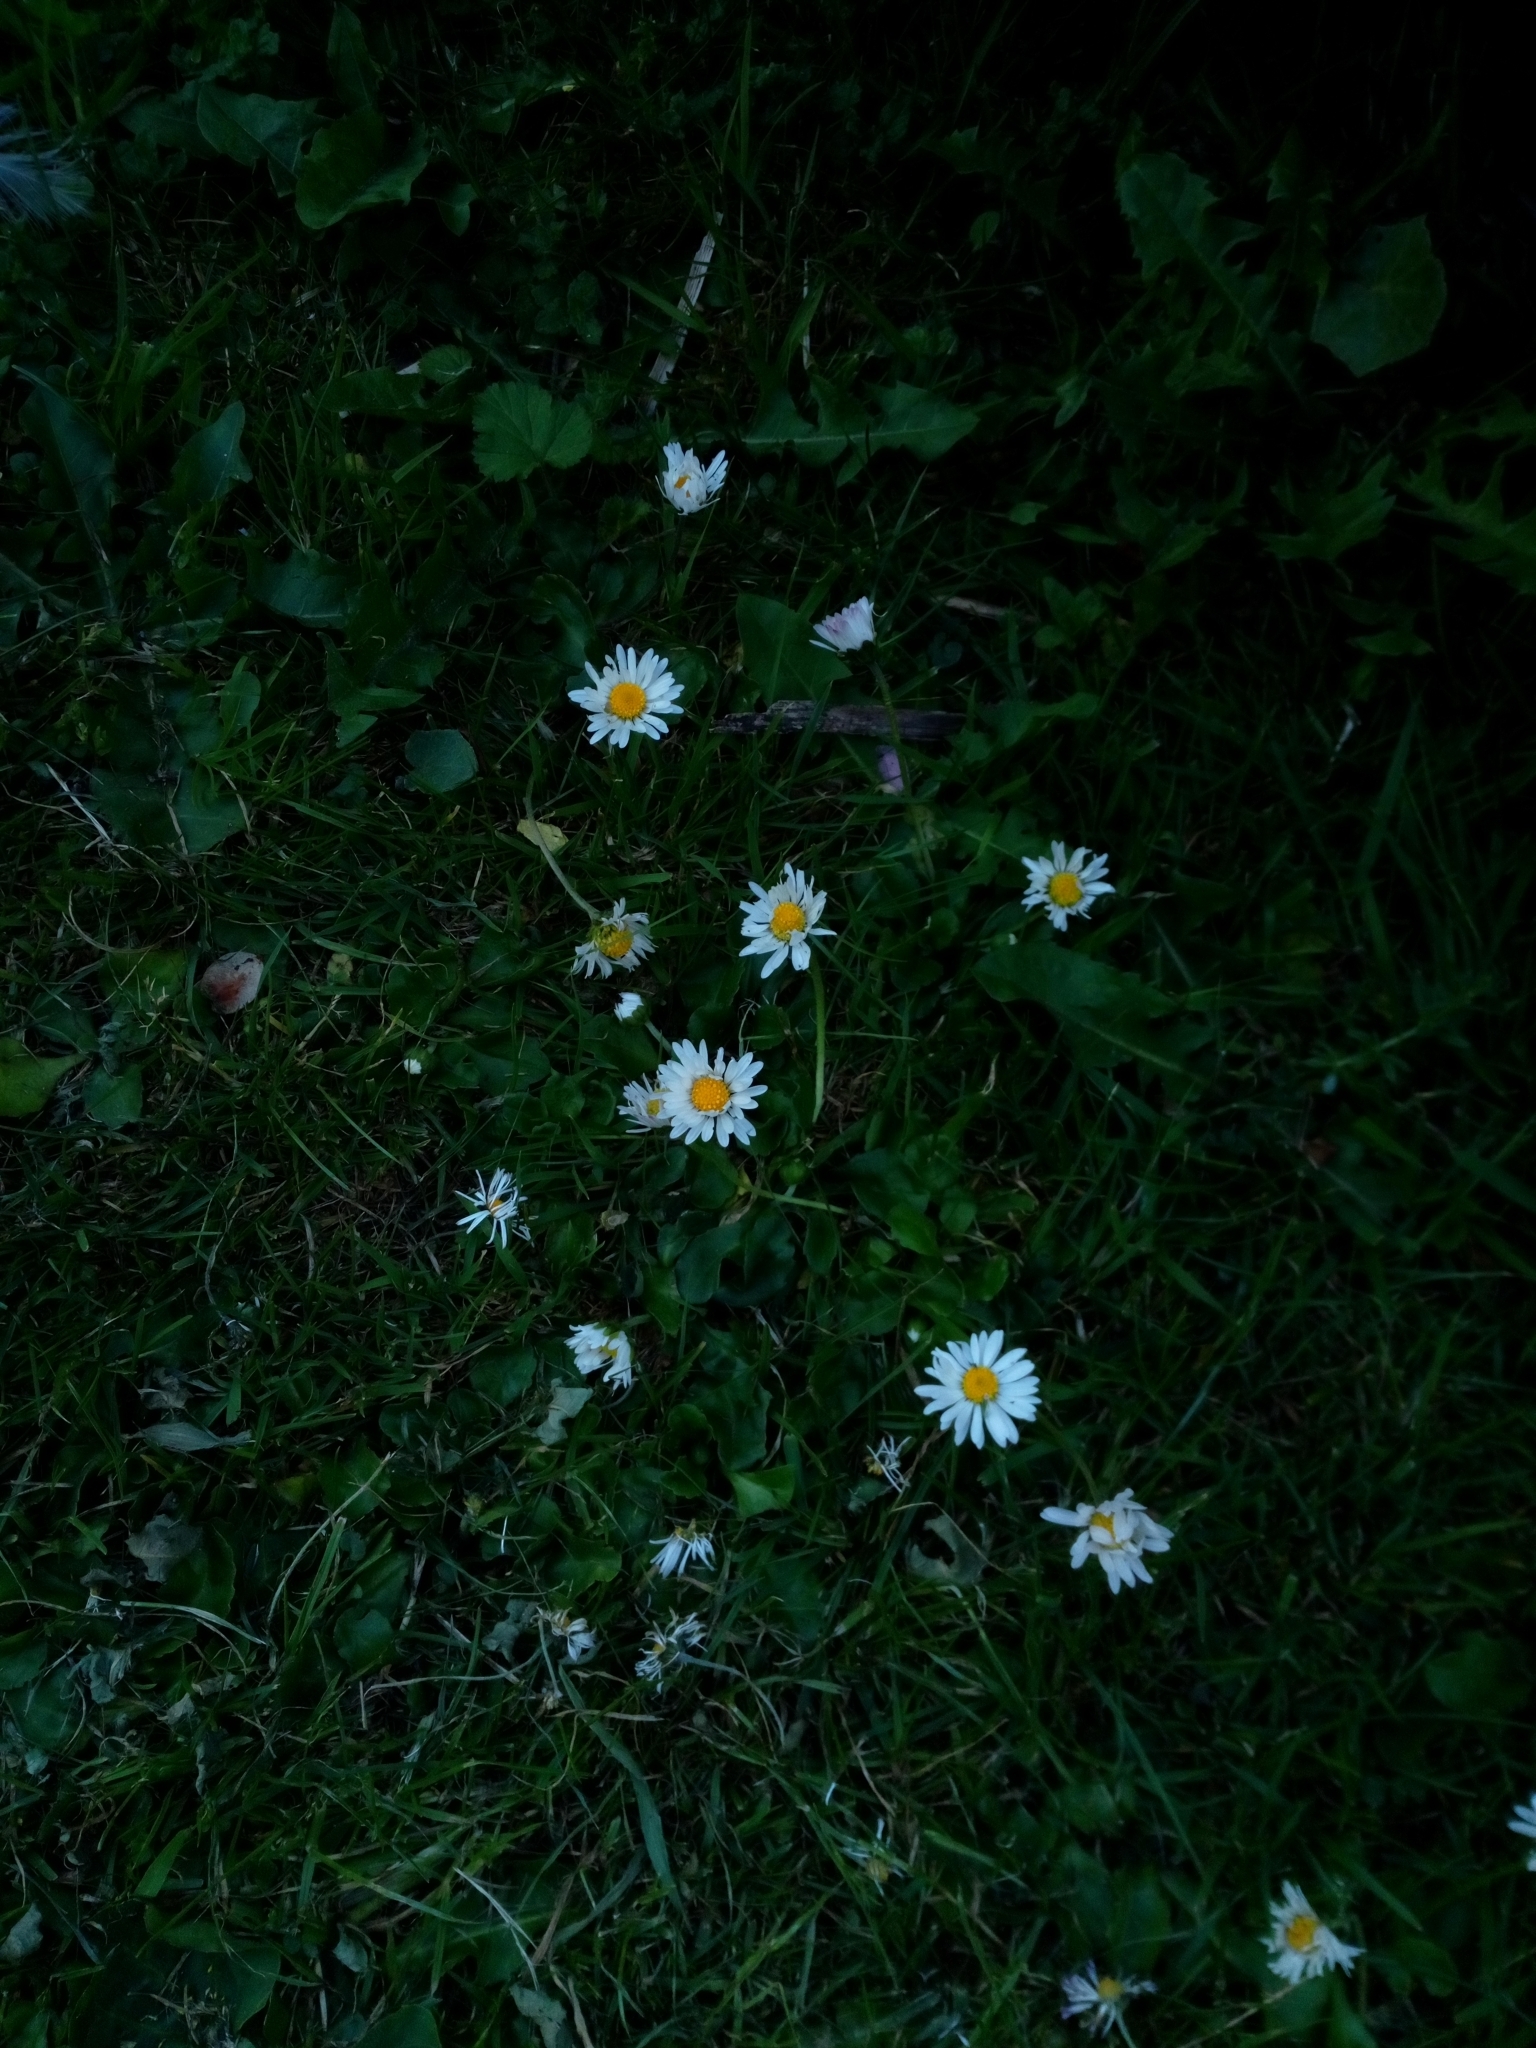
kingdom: Plantae
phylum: Tracheophyta
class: Magnoliopsida
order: Asterales
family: Asteraceae
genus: Bellis
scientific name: Bellis perennis
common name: Lawndaisy
